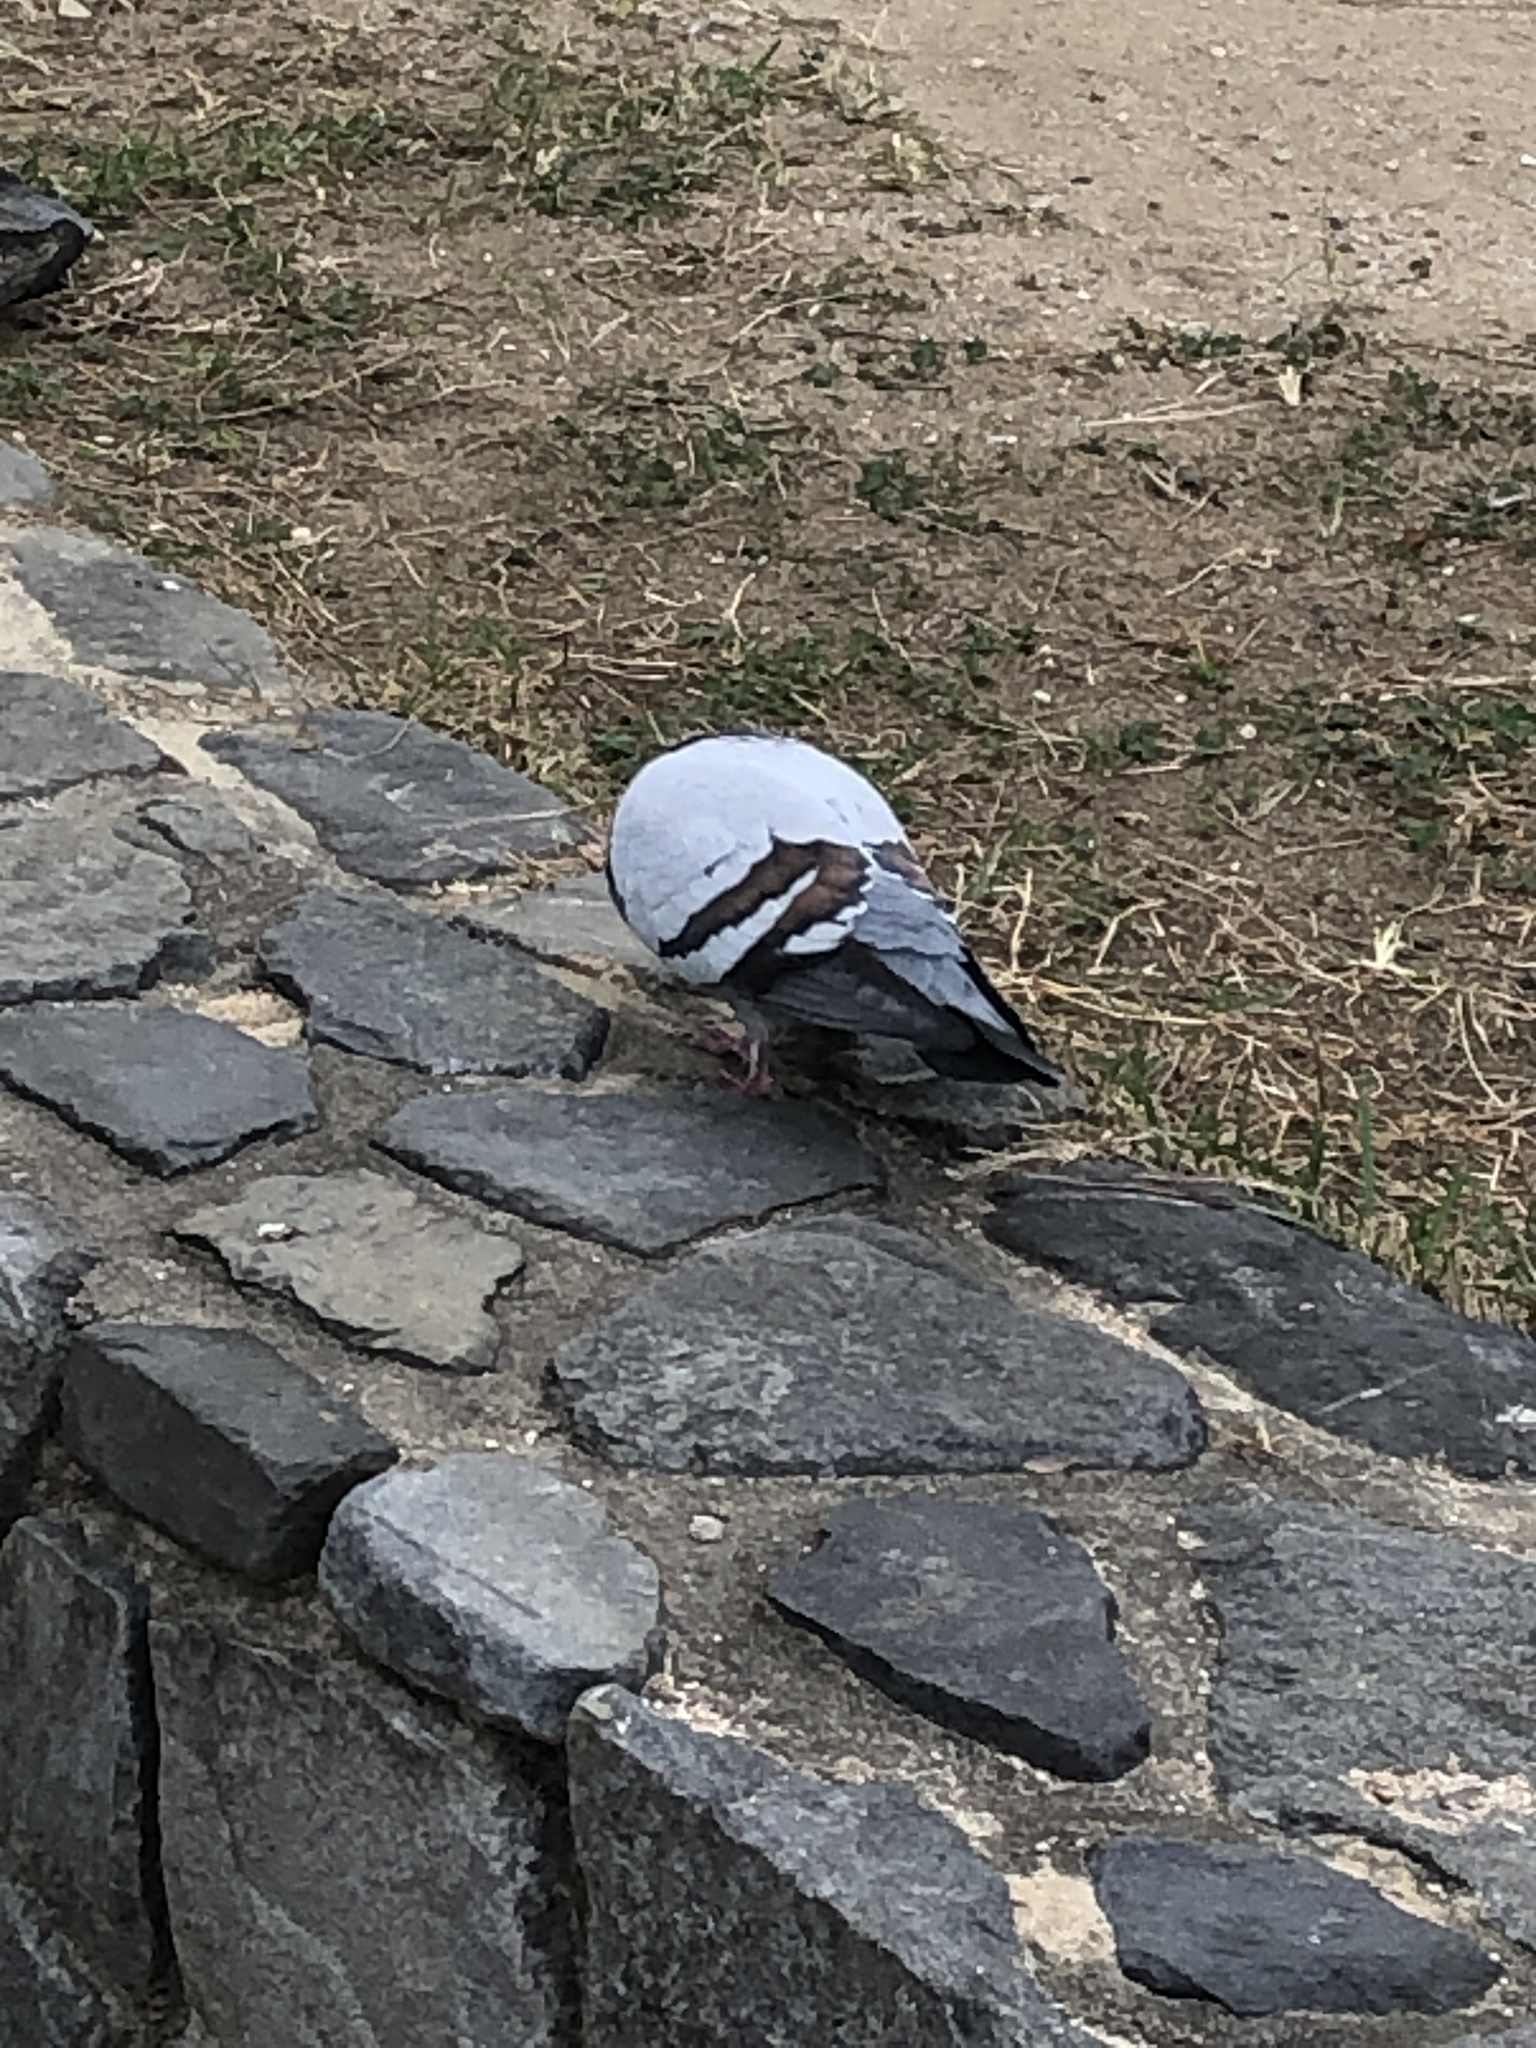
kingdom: Animalia
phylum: Chordata
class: Aves
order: Columbiformes
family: Columbidae
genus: Columba
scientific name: Columba livia
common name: Rock pigeon
